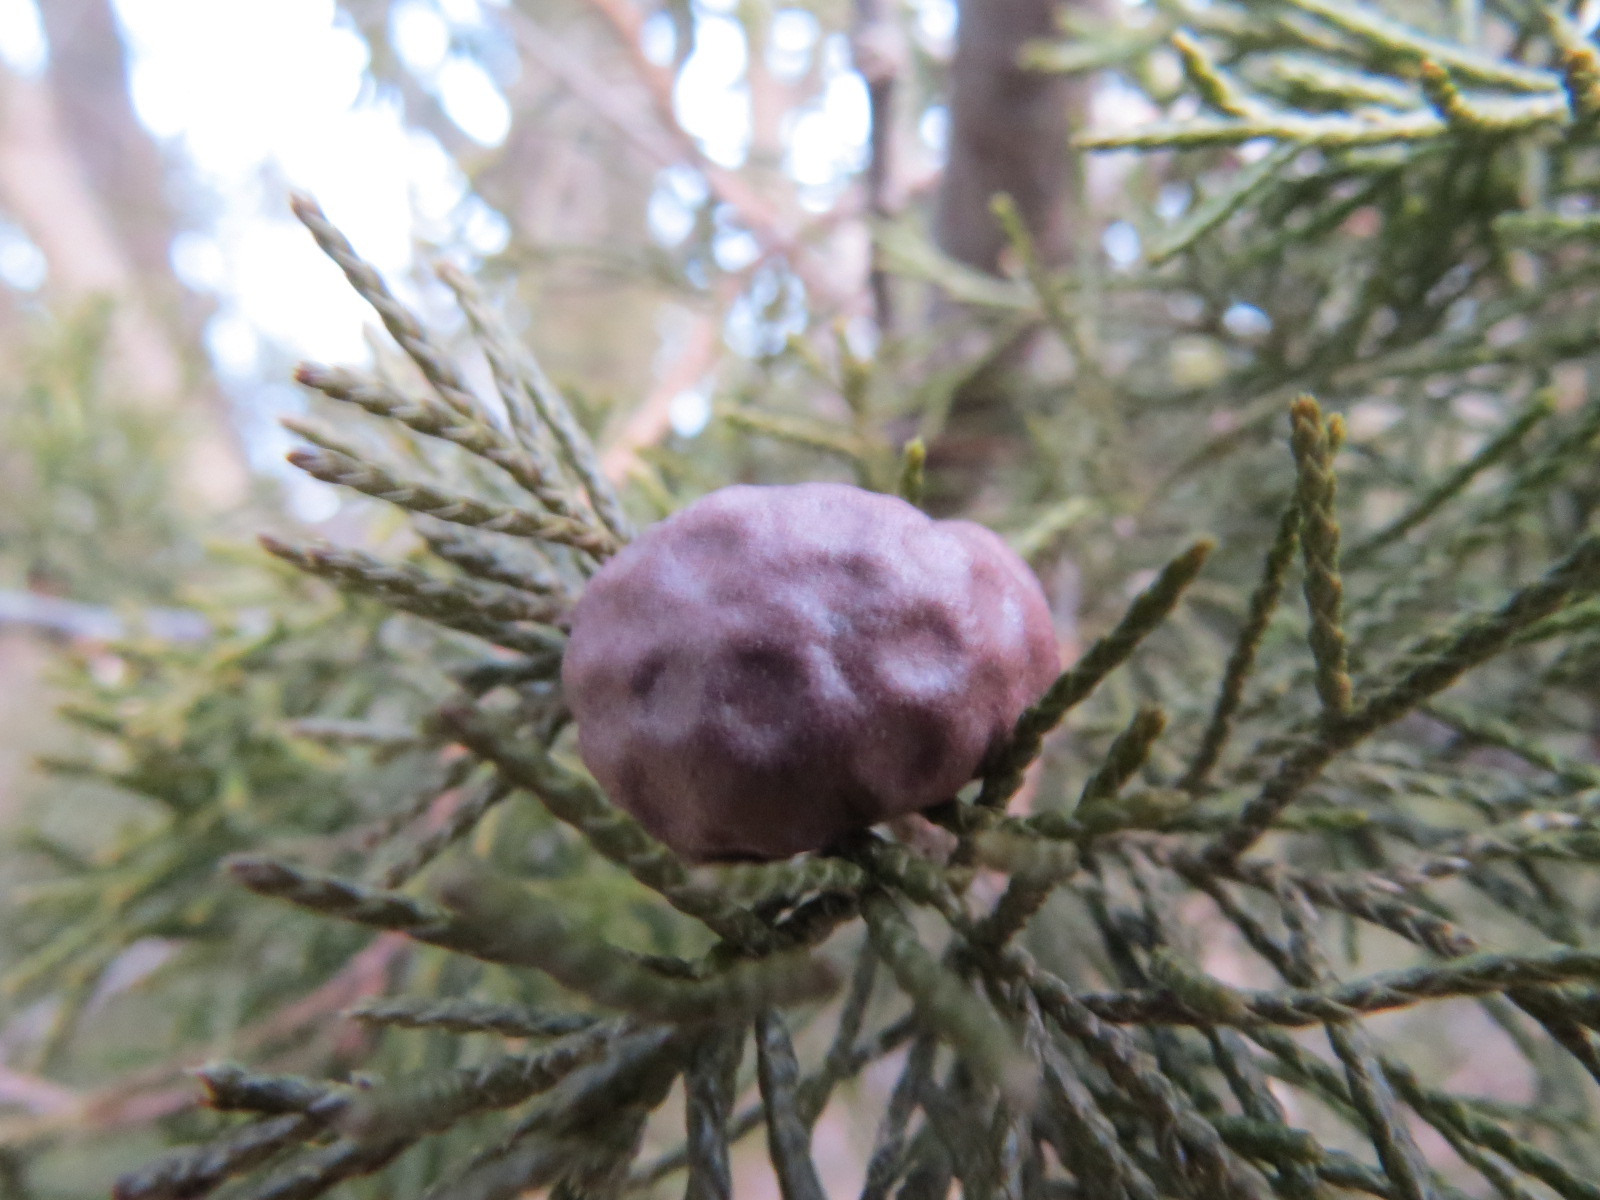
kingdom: Fungi
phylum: Basidiomycota
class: Pucciniomycetes
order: Pucciniales
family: Gymnosporangiaceae
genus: Gymnosporangium
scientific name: Gymnosporangium juniperi-virginianae
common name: Juniper-apple rust
